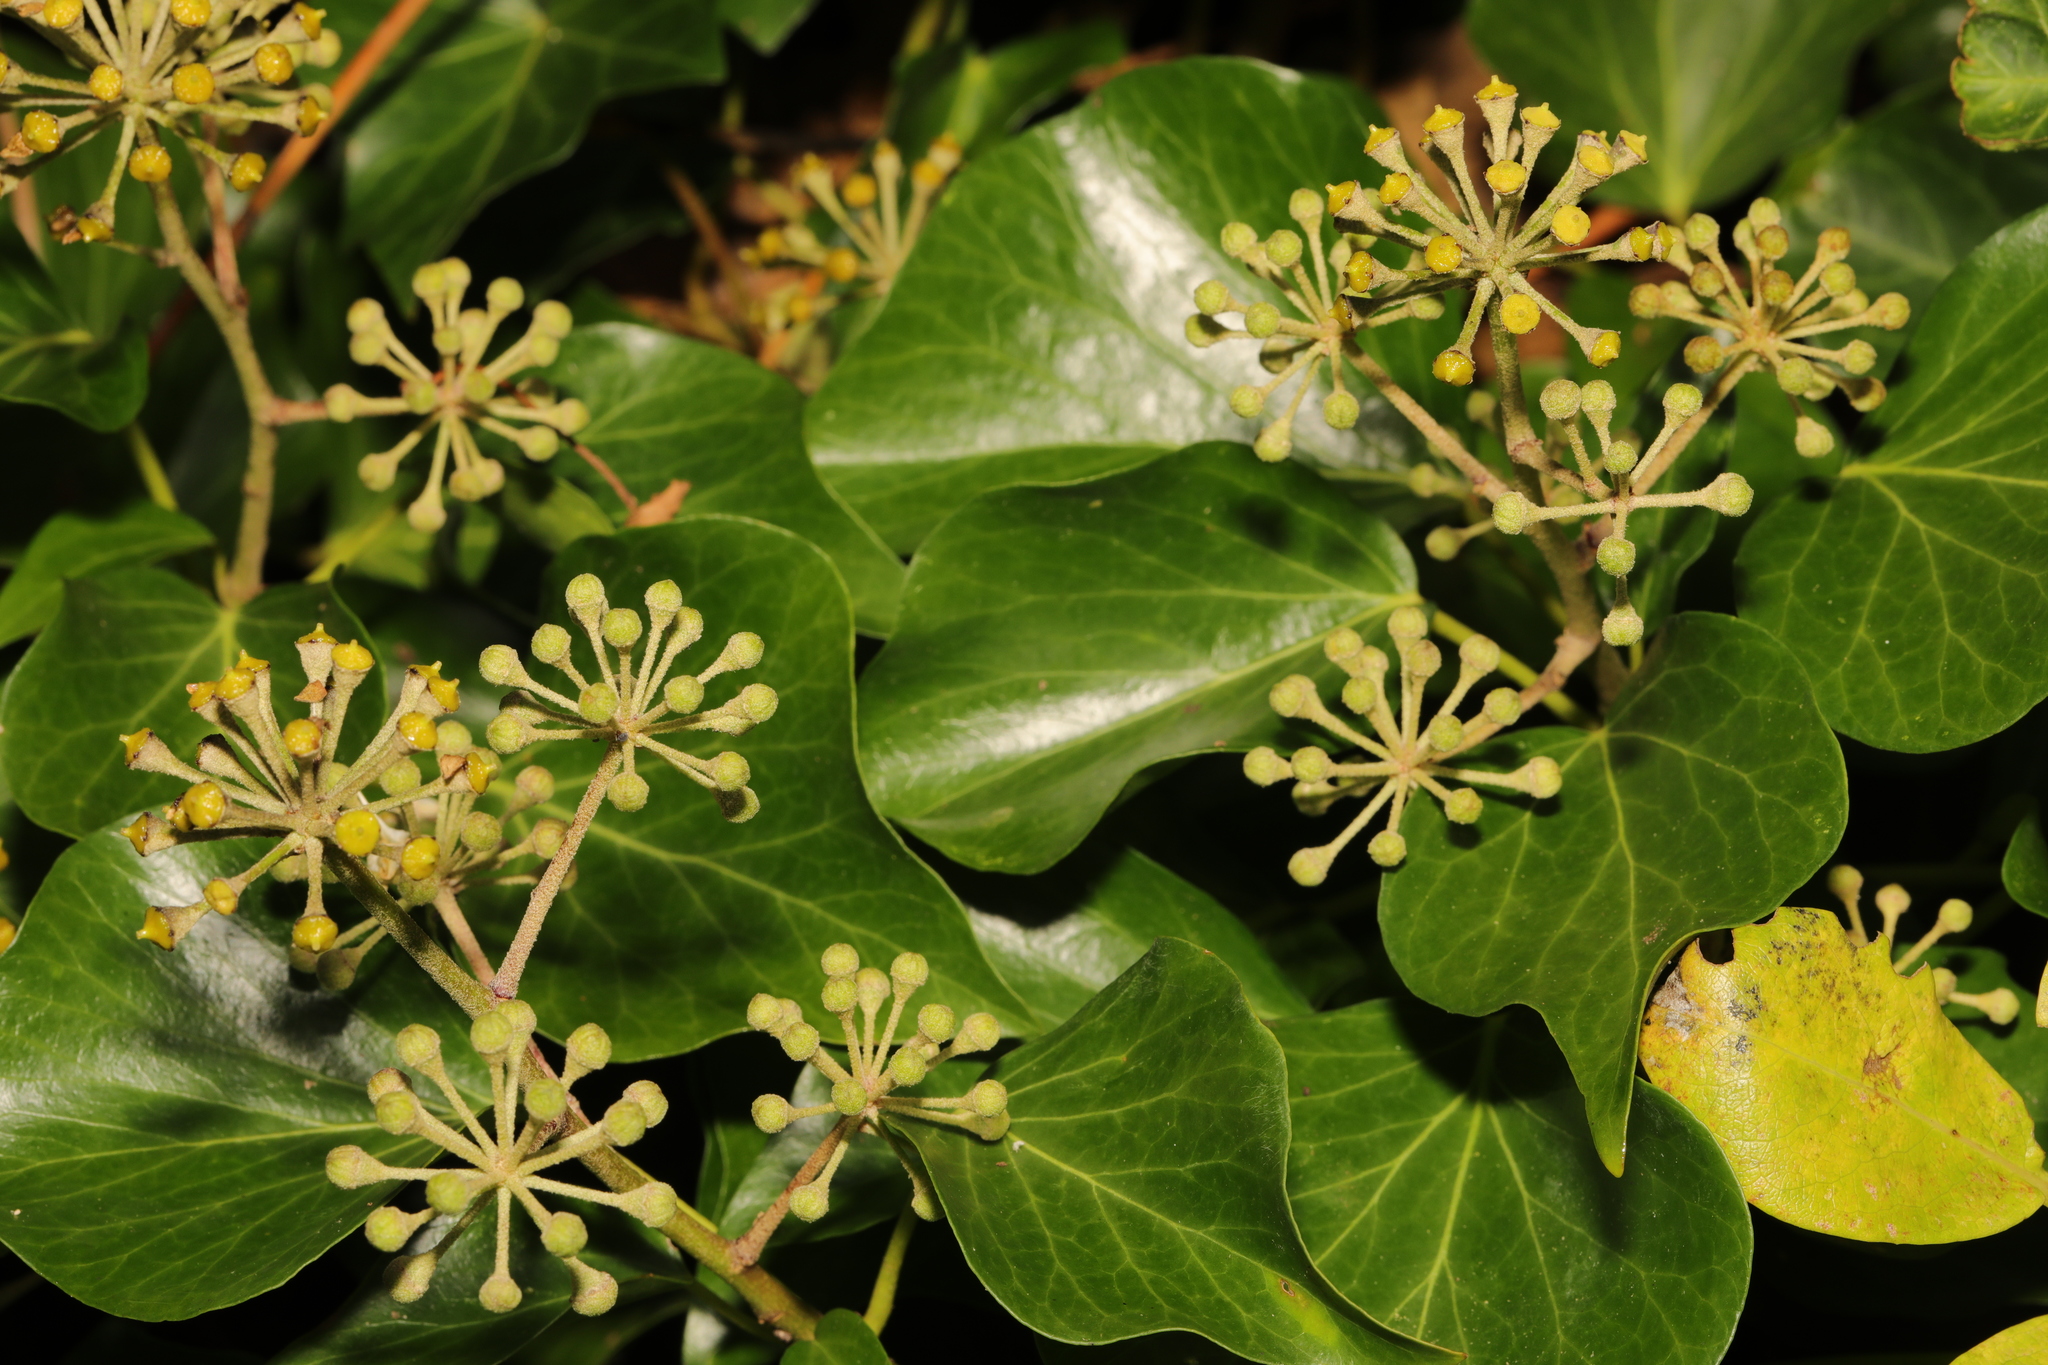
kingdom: Plantae
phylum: Tracheophyta
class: Magnoliopsida
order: Apiales
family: Araliaceae
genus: Hedera
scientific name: Hedera helix
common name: Ivy
